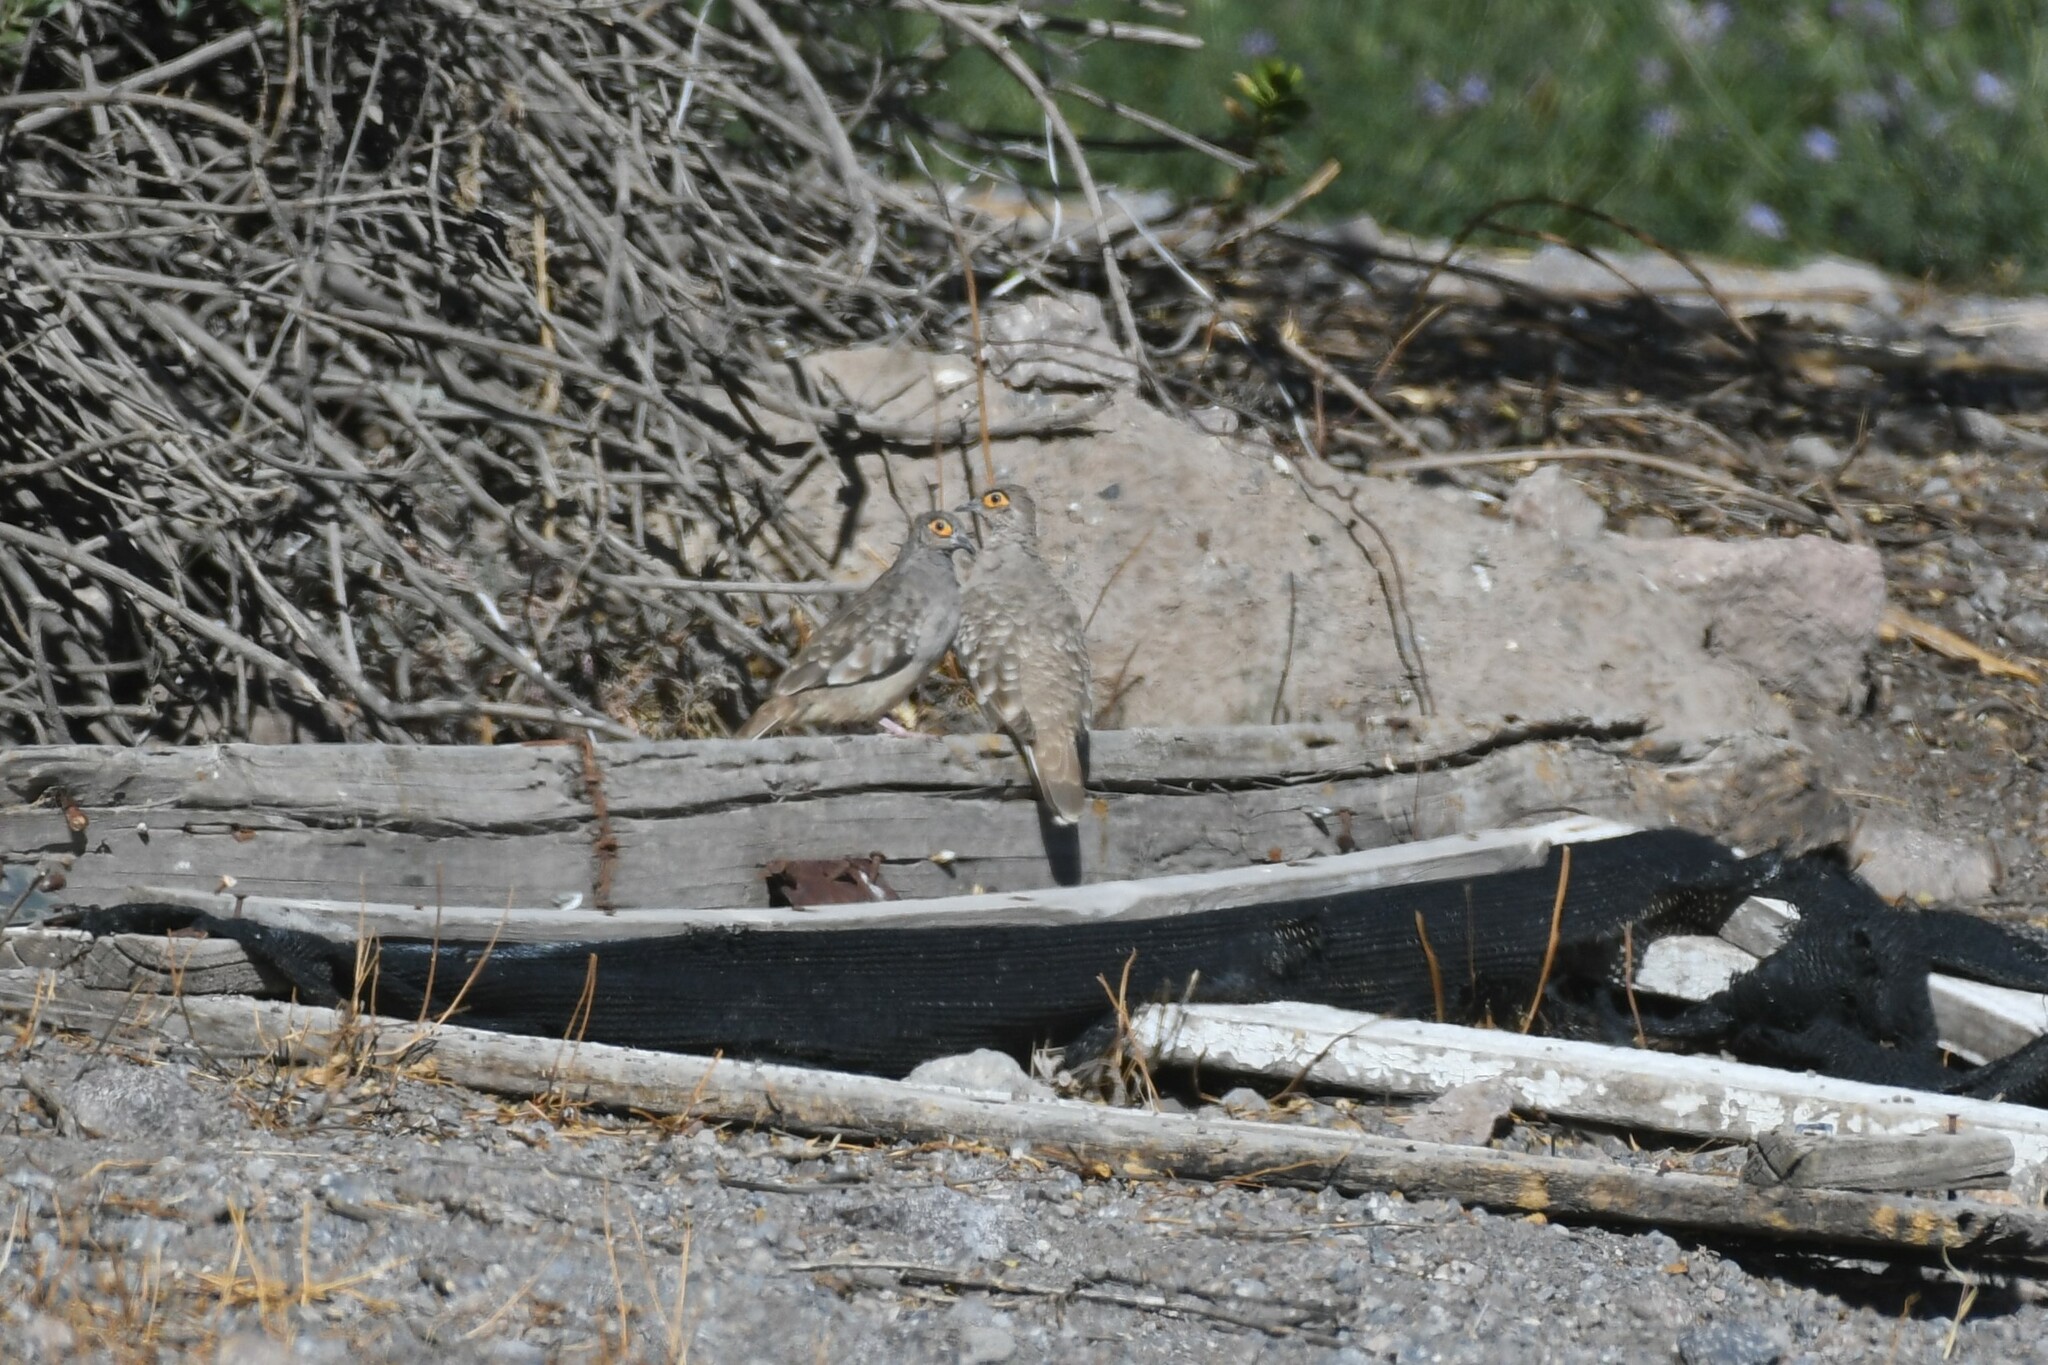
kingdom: Animalia
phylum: Chordata
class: Aves
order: Columbiformes
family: Columbidae
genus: Metriopelia
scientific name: Metriopelia ceciliae
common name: Bare-faced ground dove
